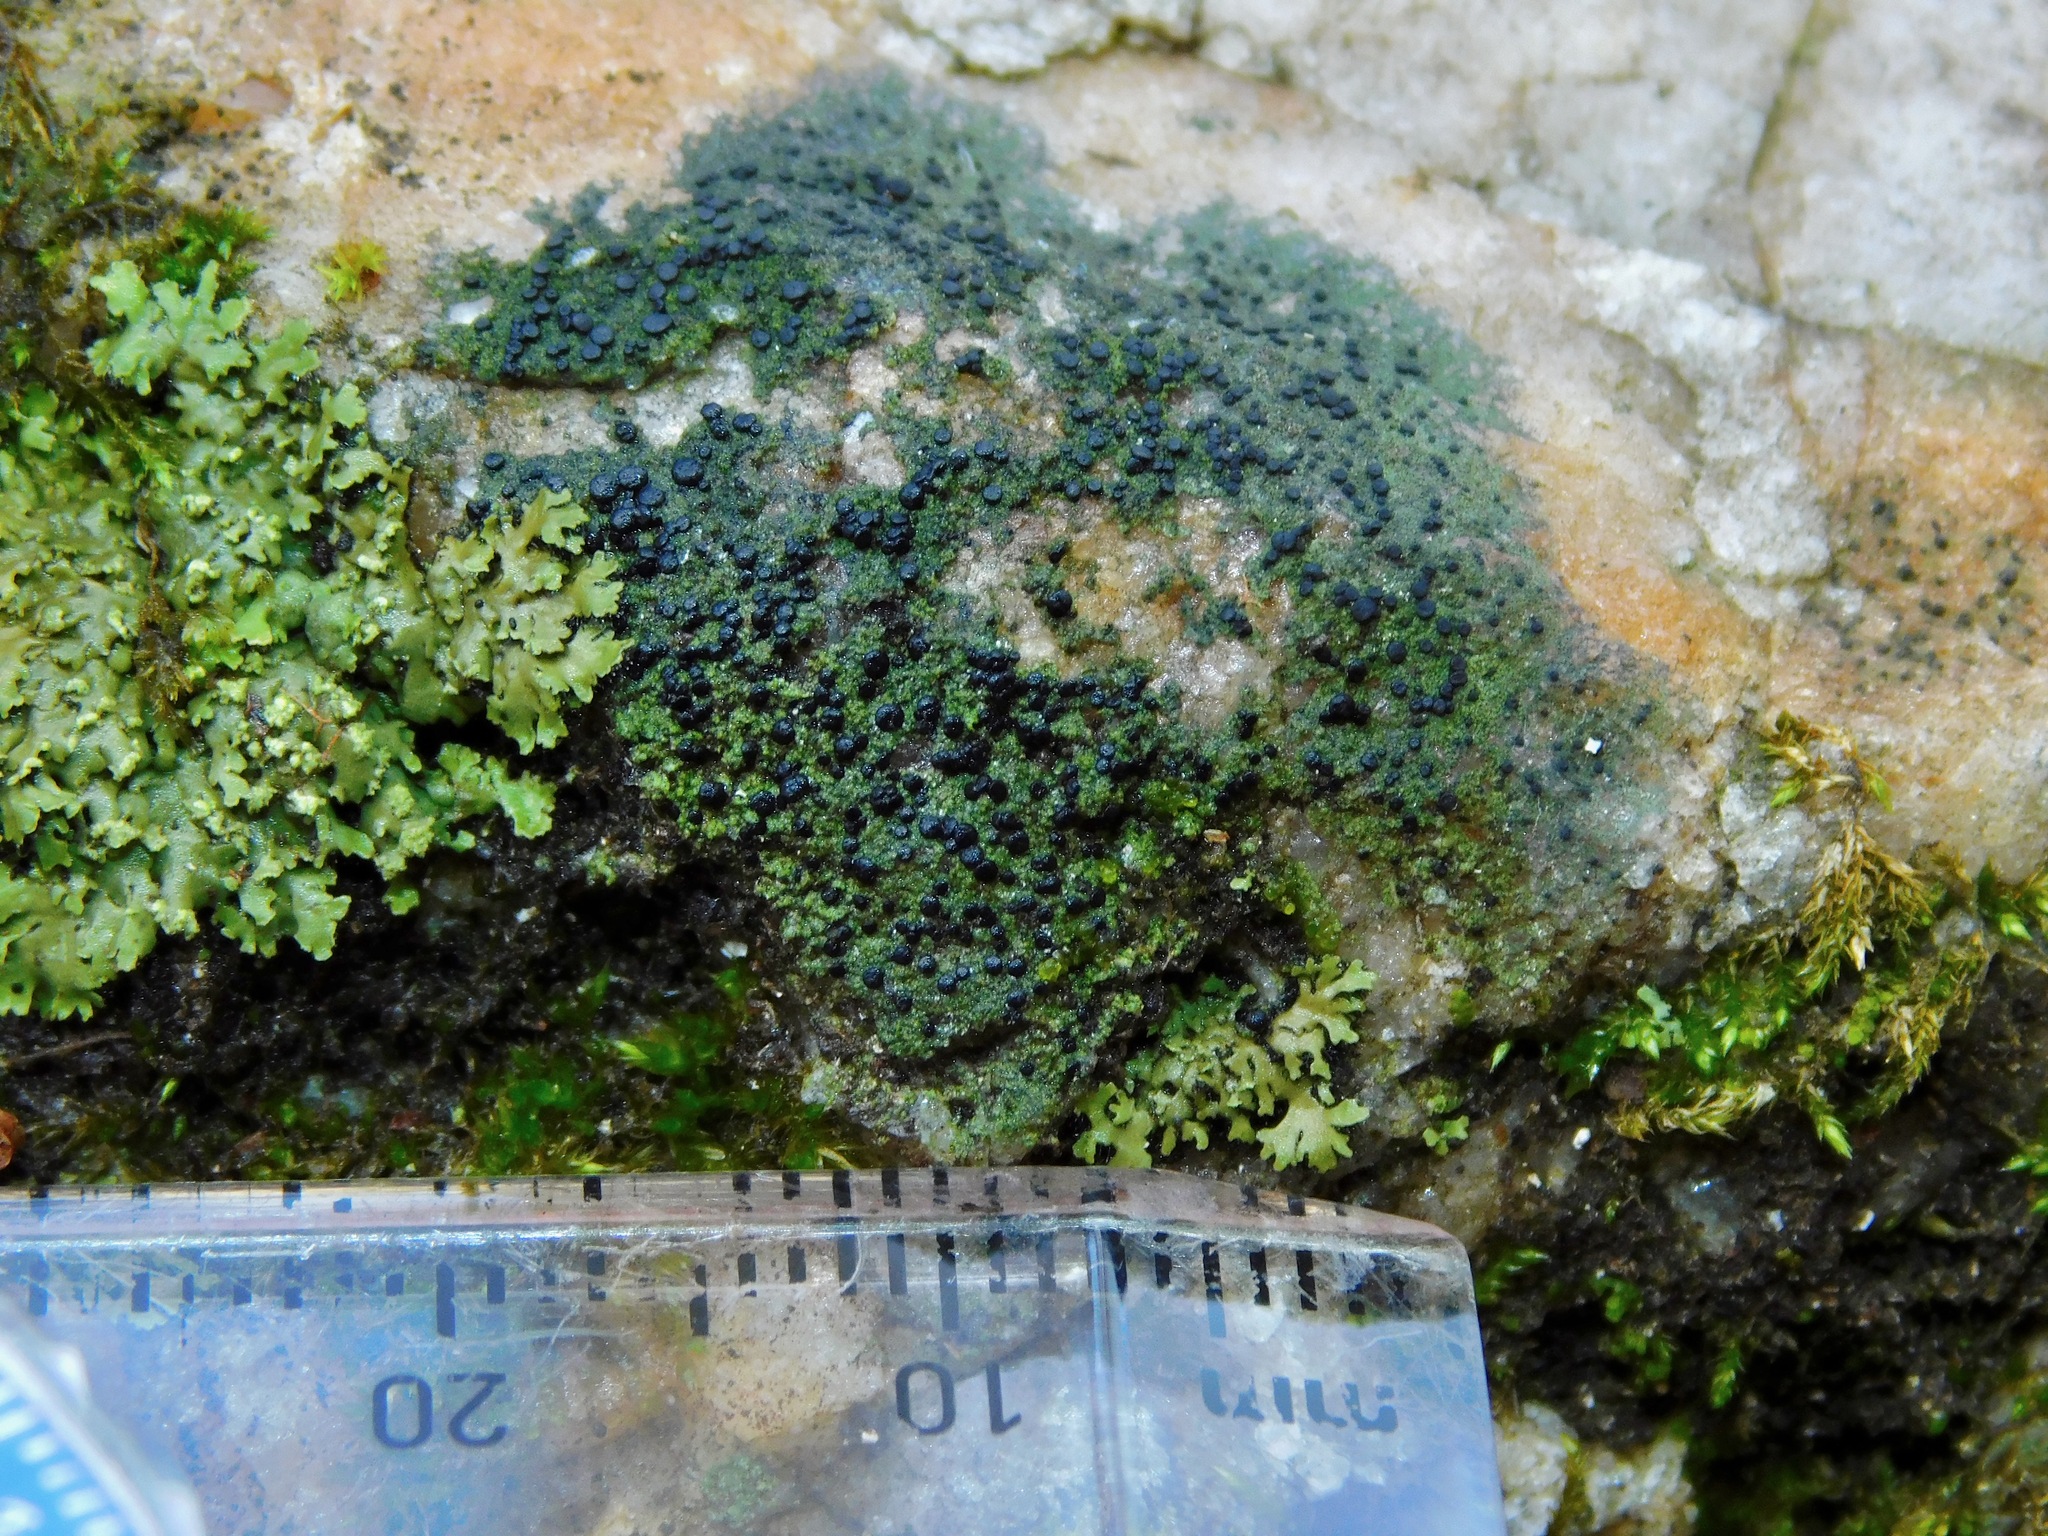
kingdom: Fungi
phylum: Ascomycota
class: Lecanoromycetes
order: Lecanorales
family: Scoliciosporaceae
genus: Scoliciosporum
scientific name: Scoliciosporum umbrinum
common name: Umber dot lichen
